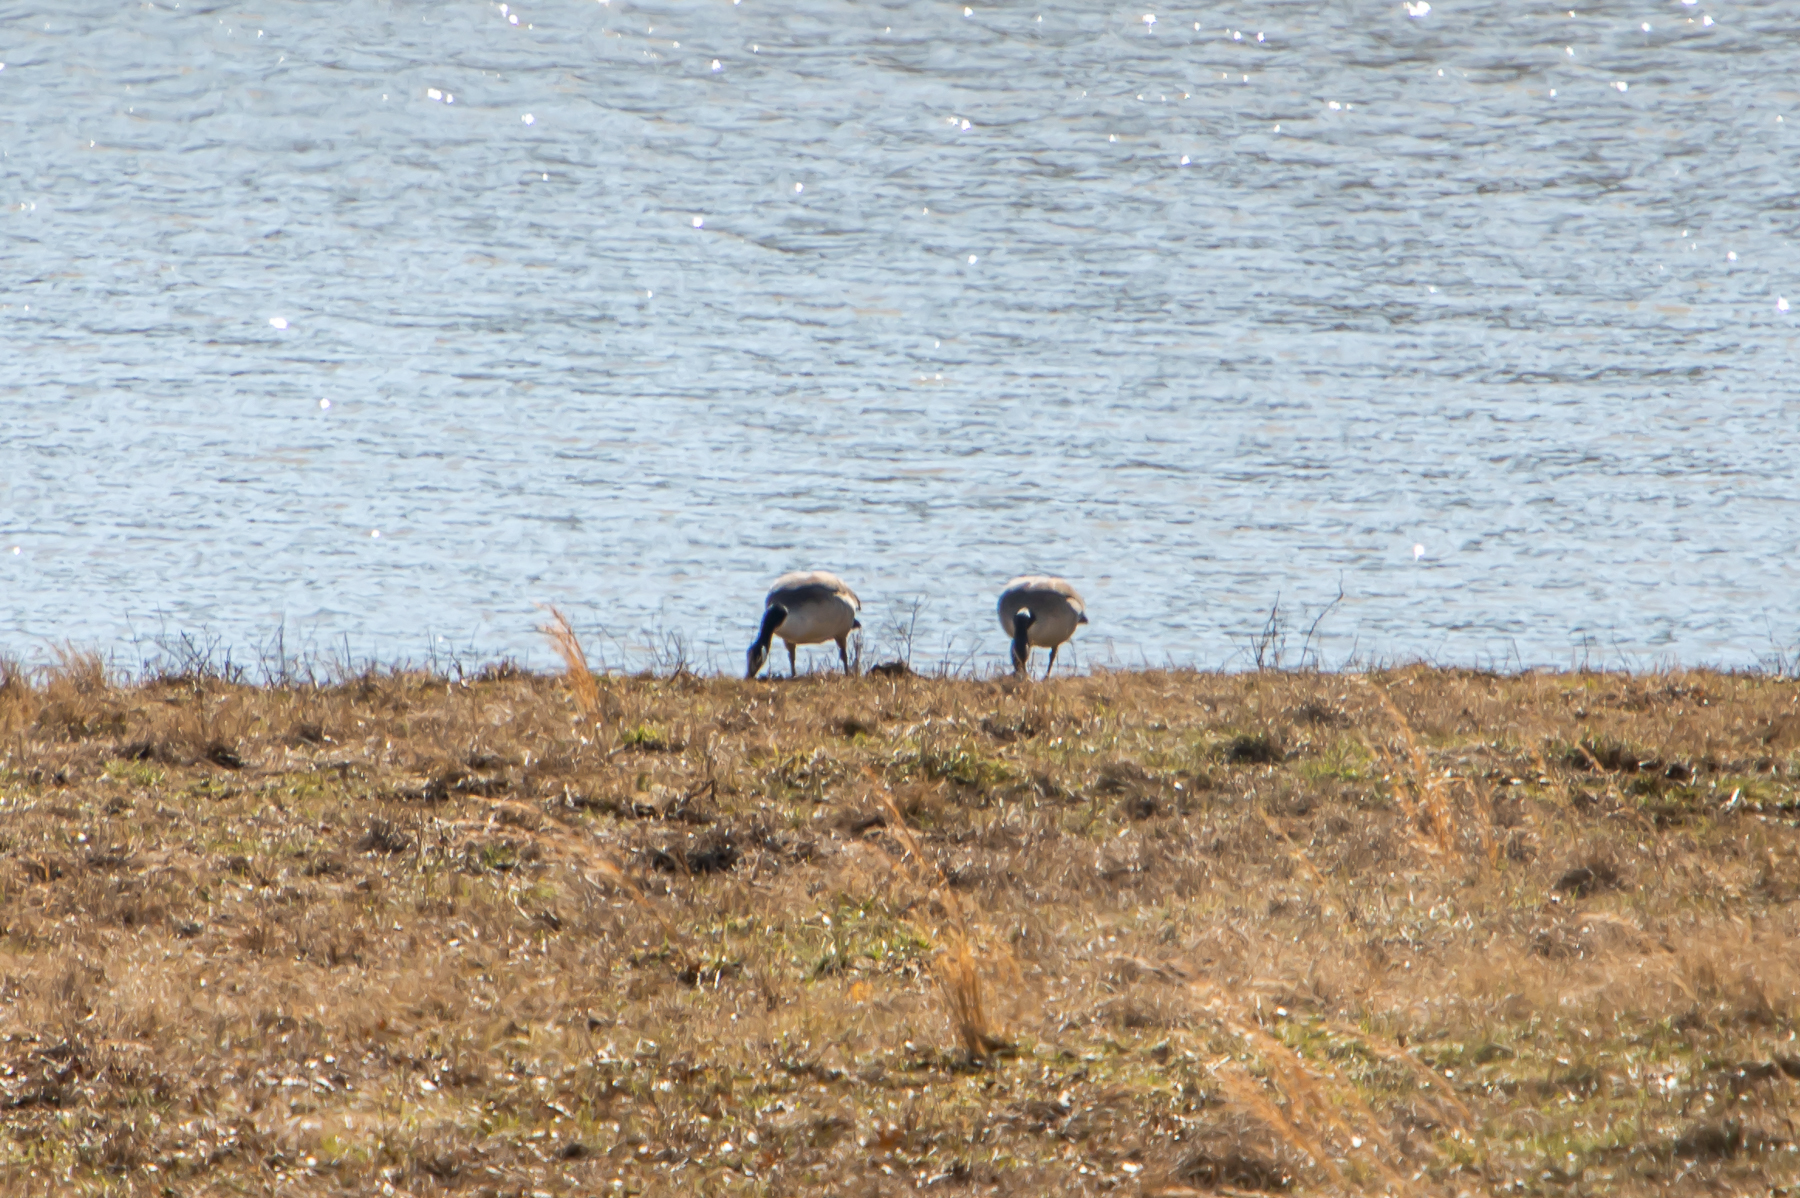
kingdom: Animalia
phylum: Chordata
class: Aves
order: Anseriformes
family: Anatidae
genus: Branta
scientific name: Branta canadensis
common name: Canada goose
